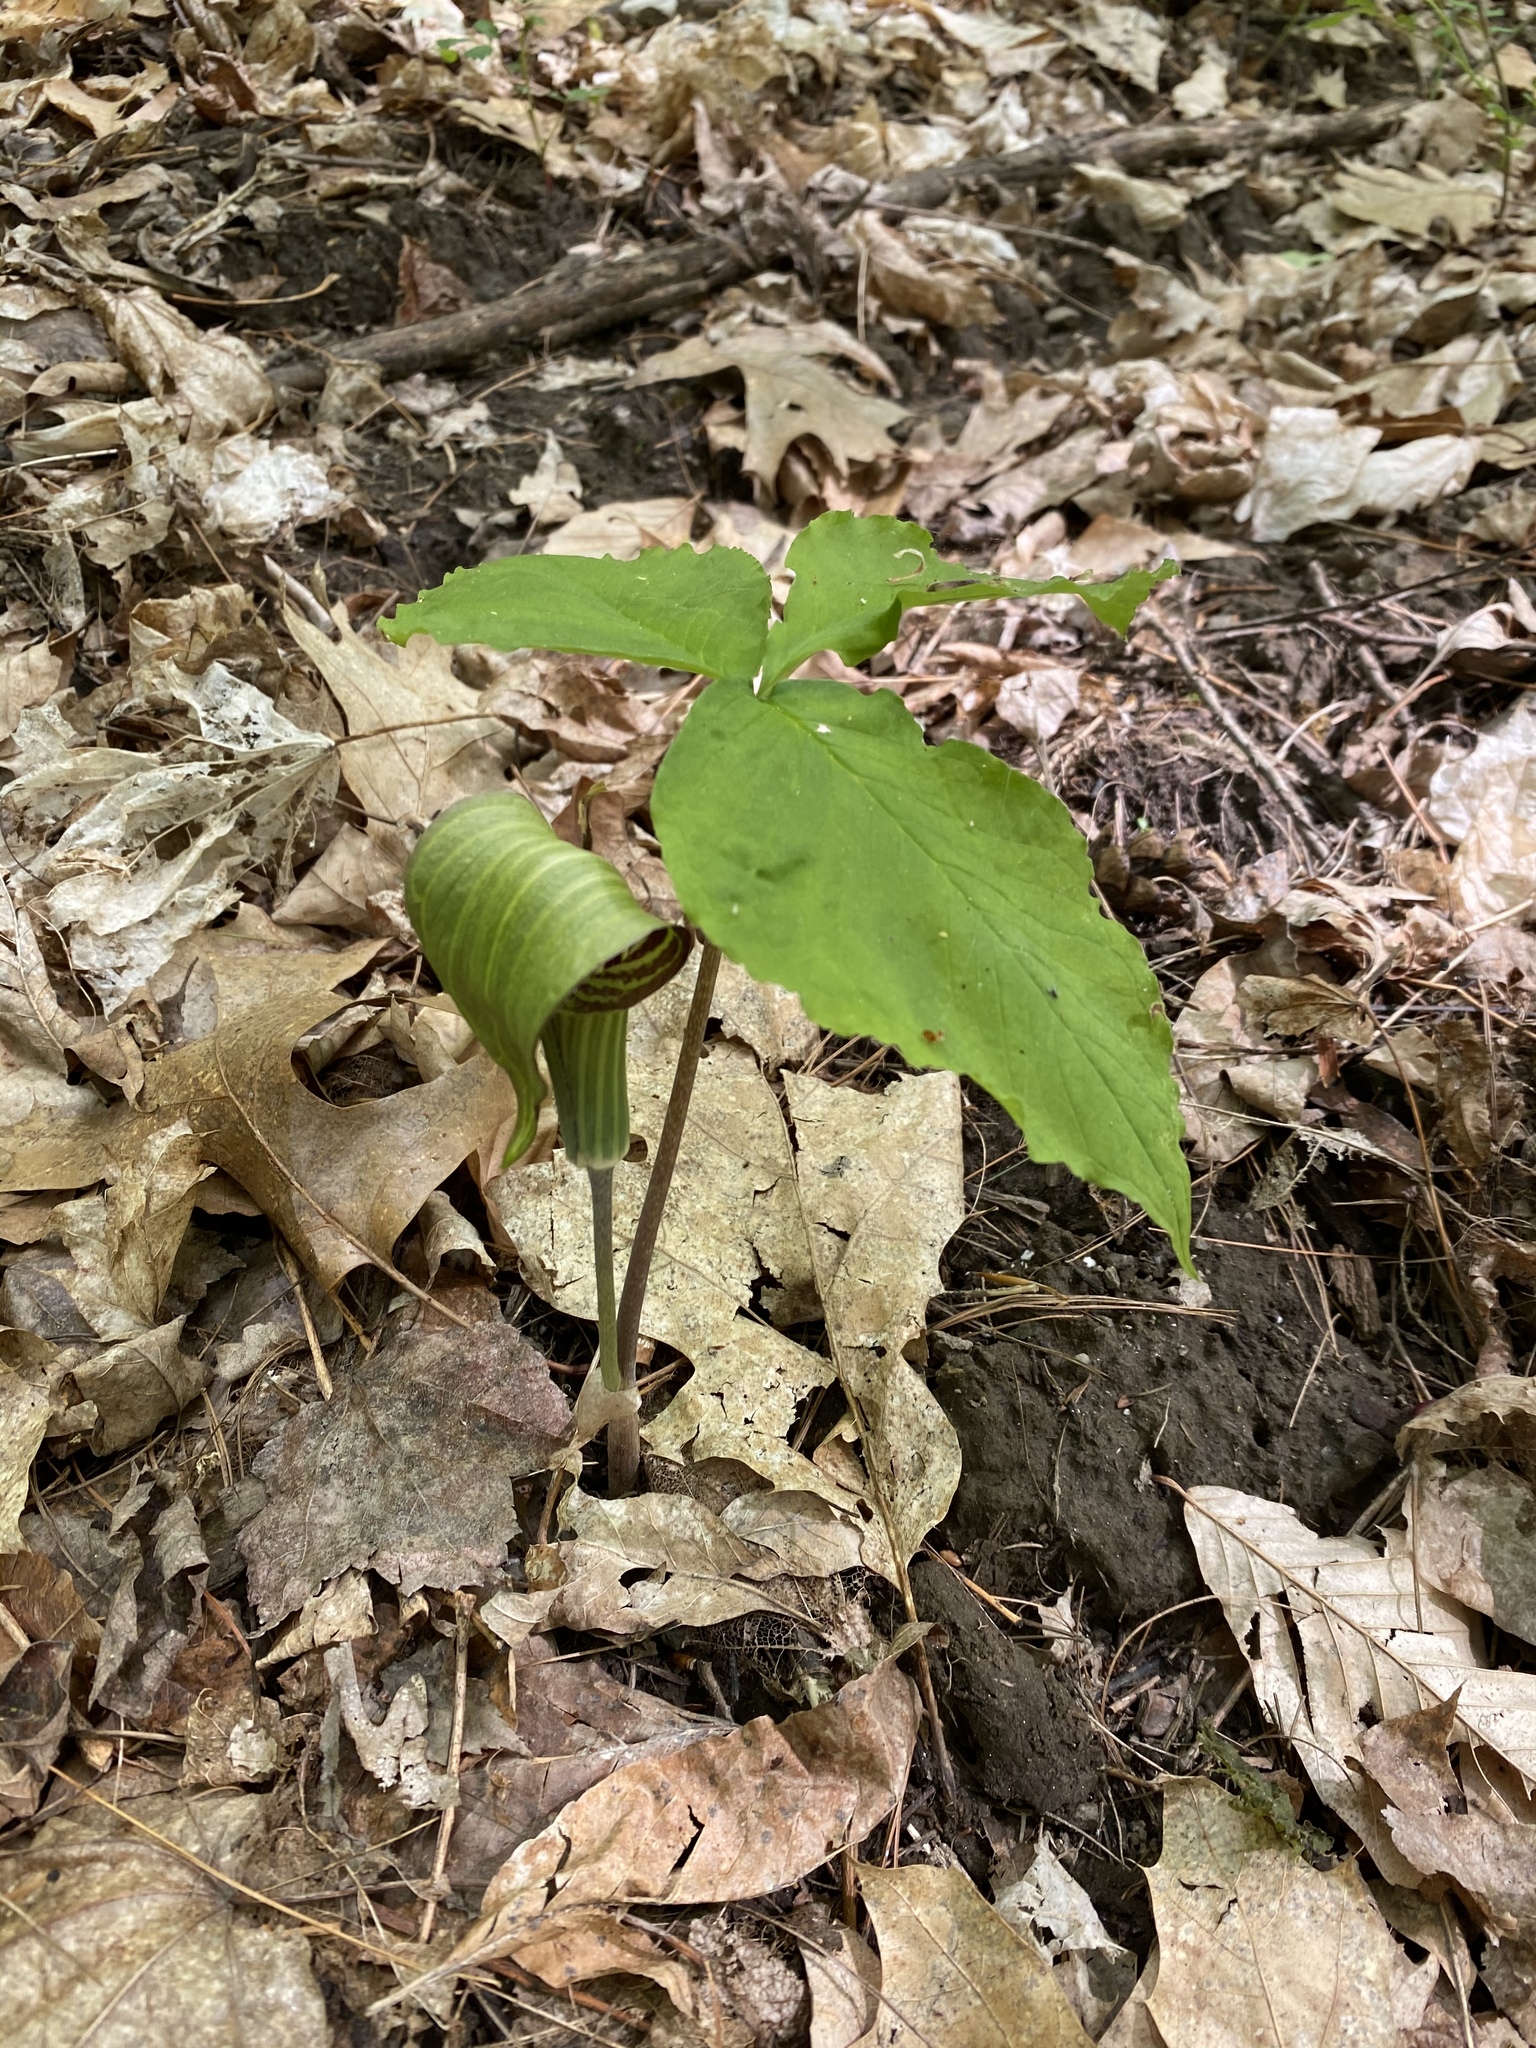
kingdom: Plantae
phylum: Tracheophyta
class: Liliopsida
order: Alismatales
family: Araceae
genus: Arisaema
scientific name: Arisaema triphyllum
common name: Jack-in-the-pulpit
